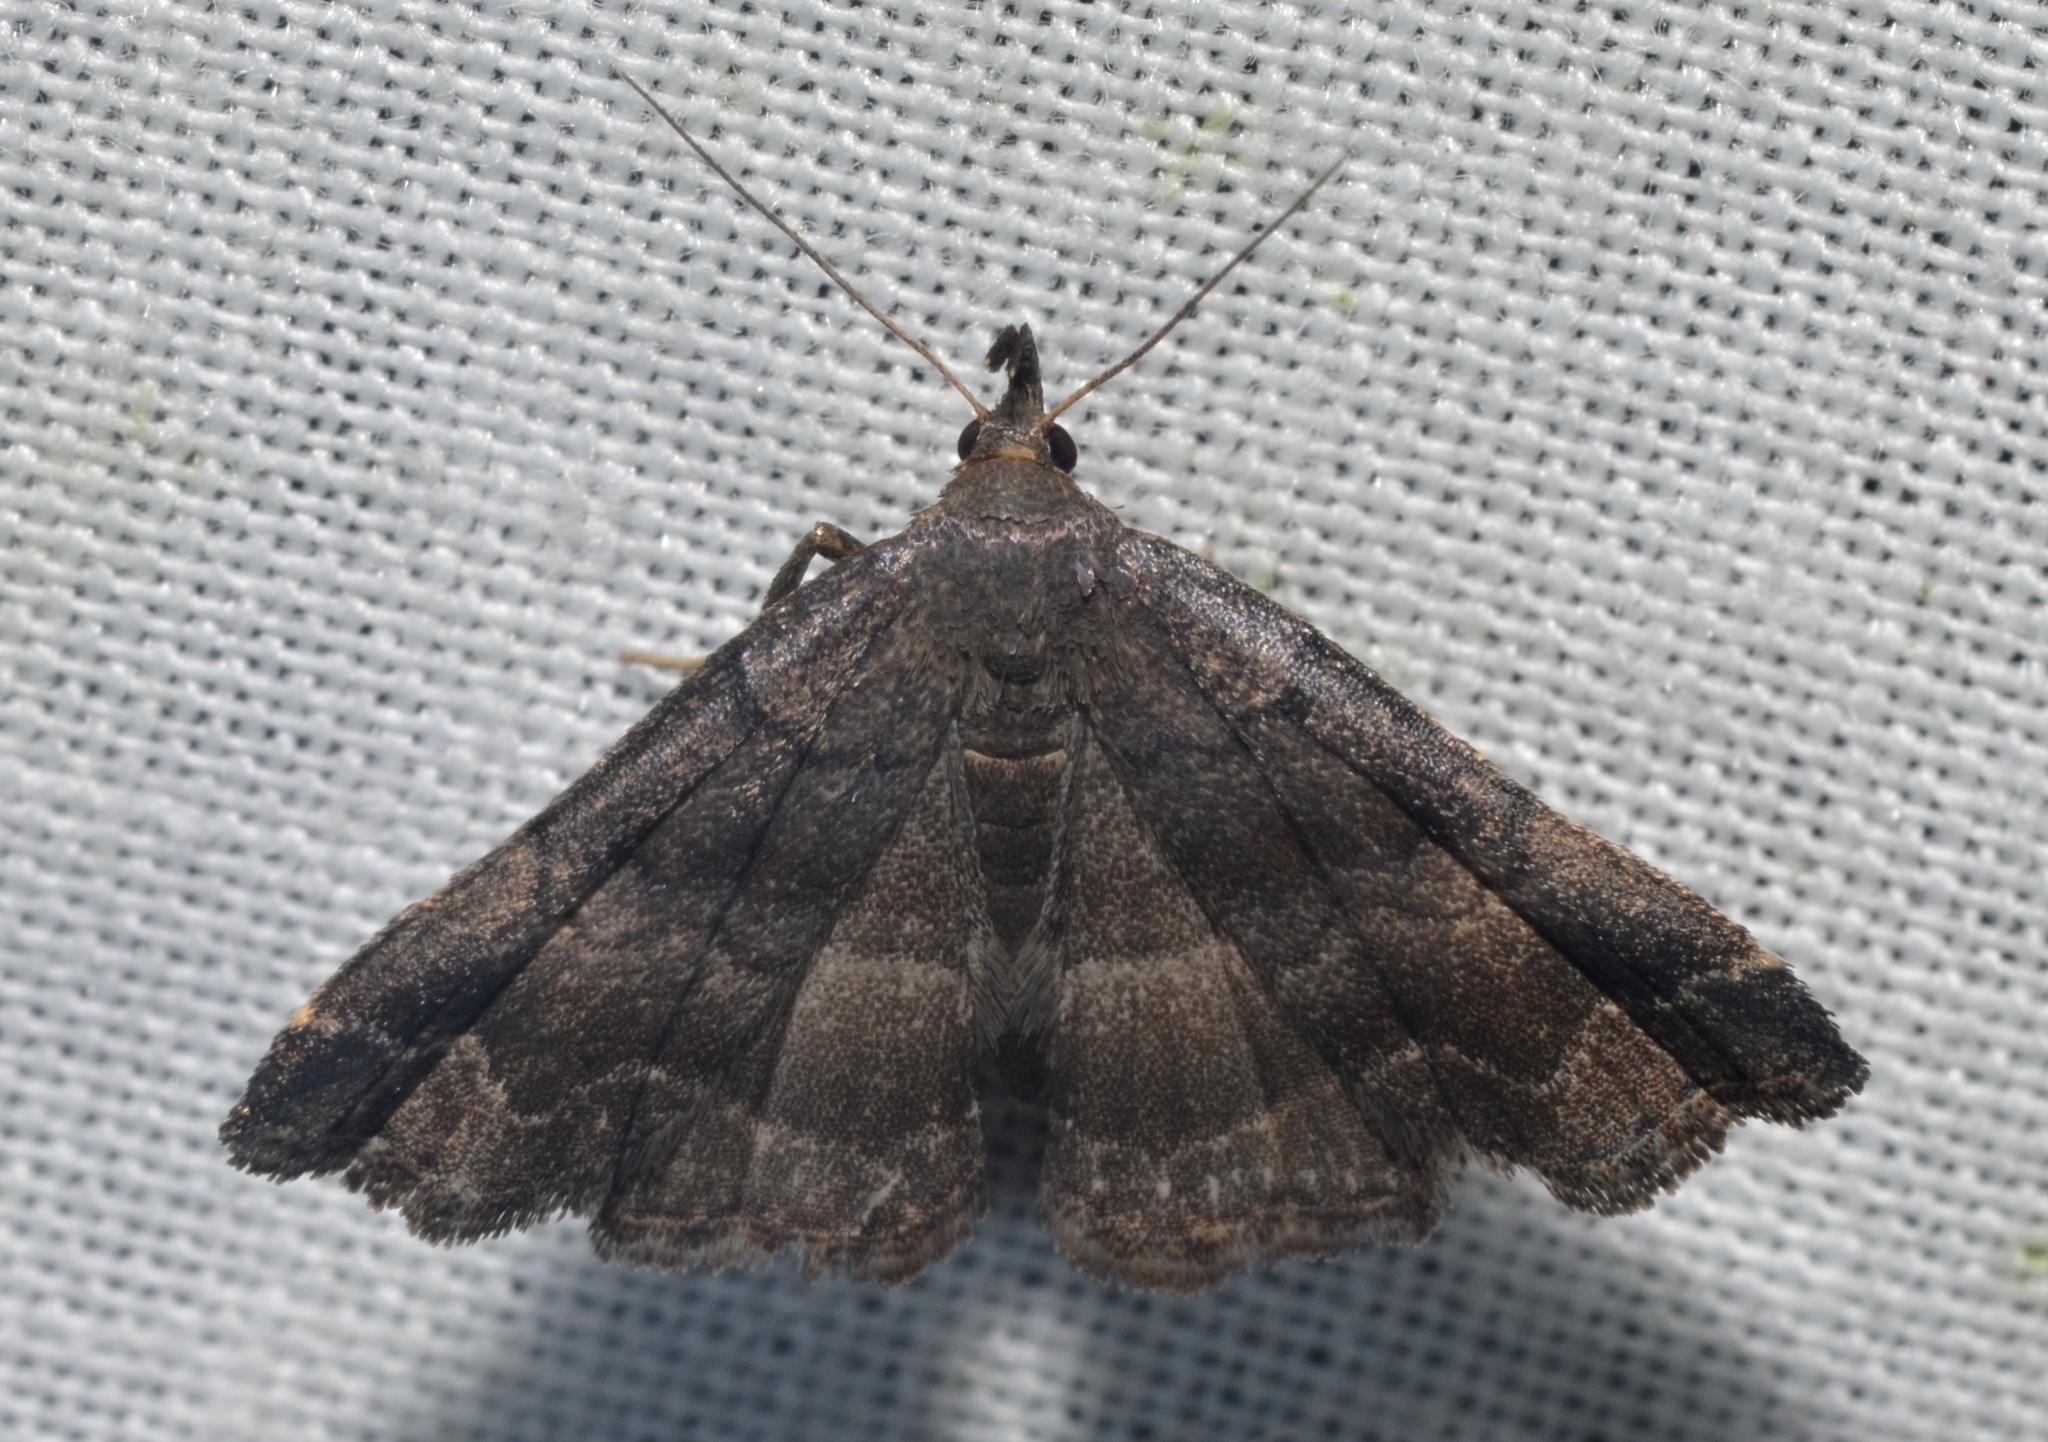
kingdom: Animalia
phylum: Arthropoda
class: Insecta
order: Lepidoptera
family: Erebidae
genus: Phalaenostola
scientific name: Phalaenostola larentioides
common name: Black-banded owlet
